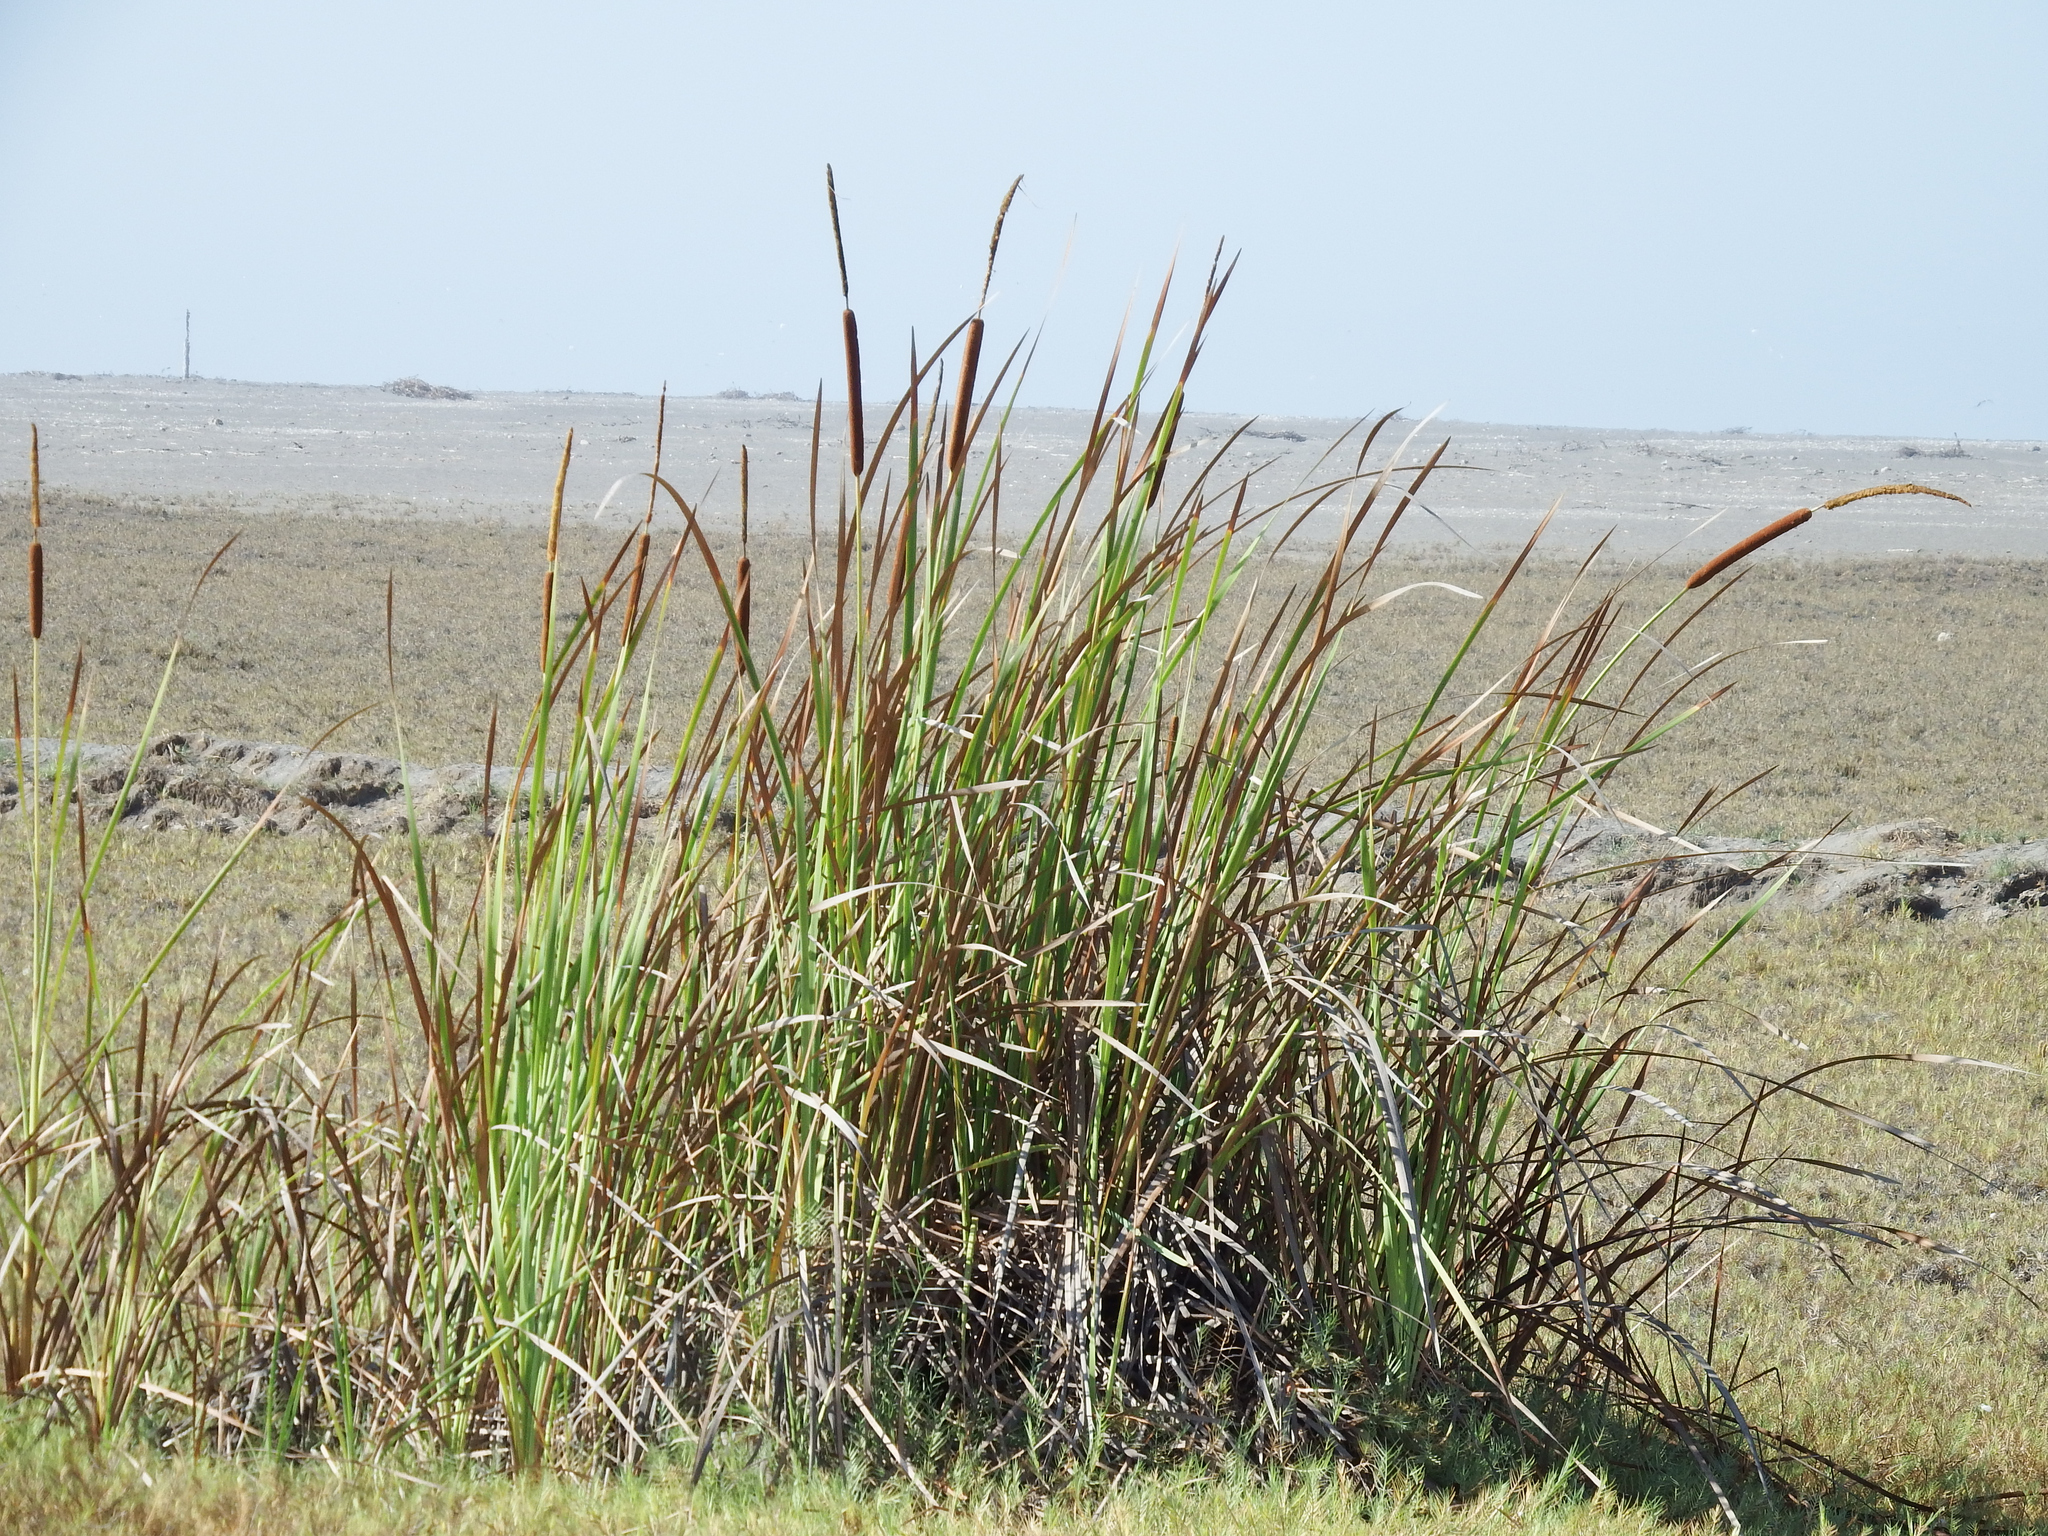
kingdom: Plantae
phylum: Tracheophyta
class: Liliopsida
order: Poales
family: Typhaceae
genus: Typha
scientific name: Typha angustifolia
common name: Lesser bulrush
